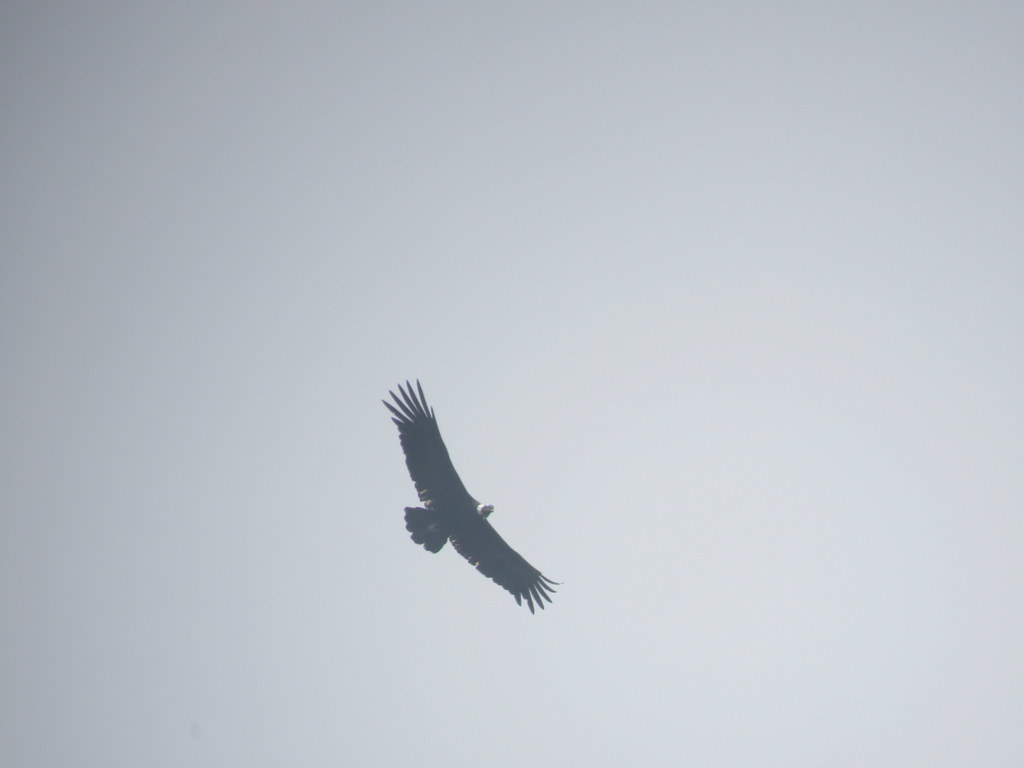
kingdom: Animalia
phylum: Chordata
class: Aves
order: Accipitriformes
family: Cathartidae
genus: Vultur
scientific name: Vultur gryphus
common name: Andean condor
